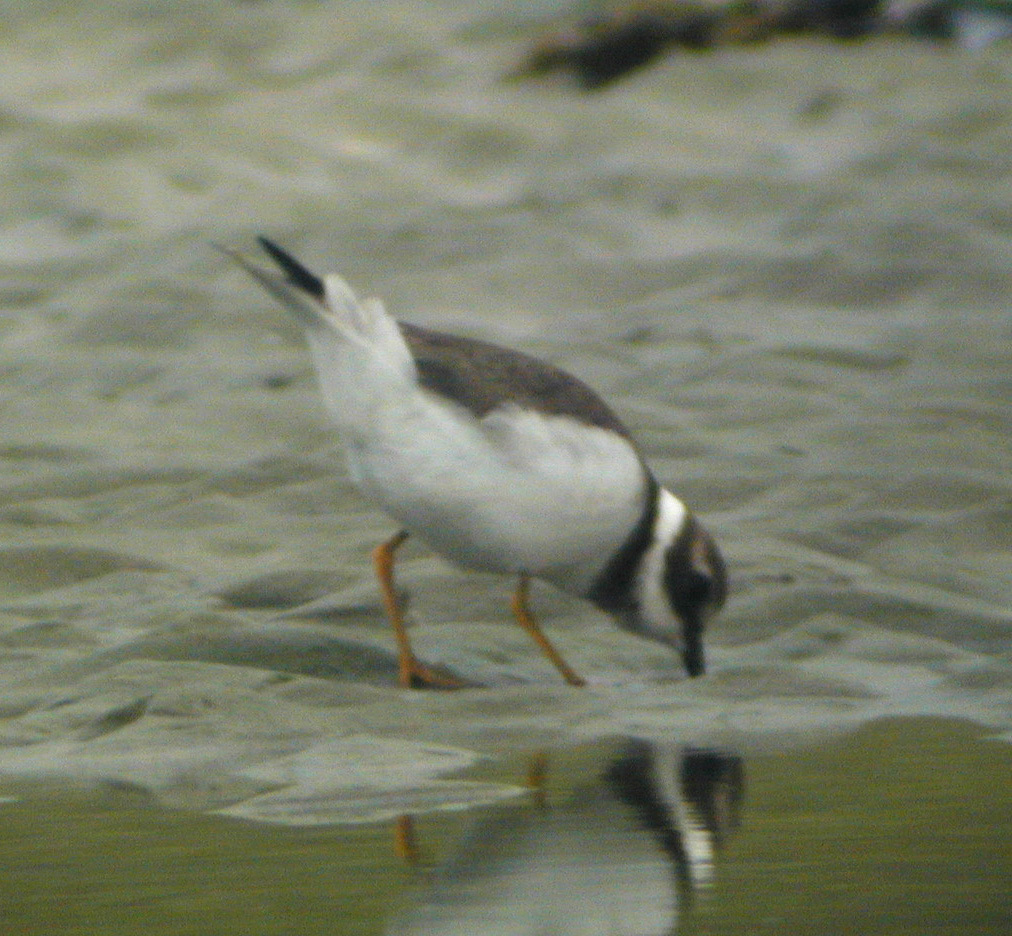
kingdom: Animalia
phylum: Chordata
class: Aves
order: Charadriiformes
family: Charadriidae
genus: Charadrius
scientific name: Charadrius hiaticula
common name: Common ringed plover
